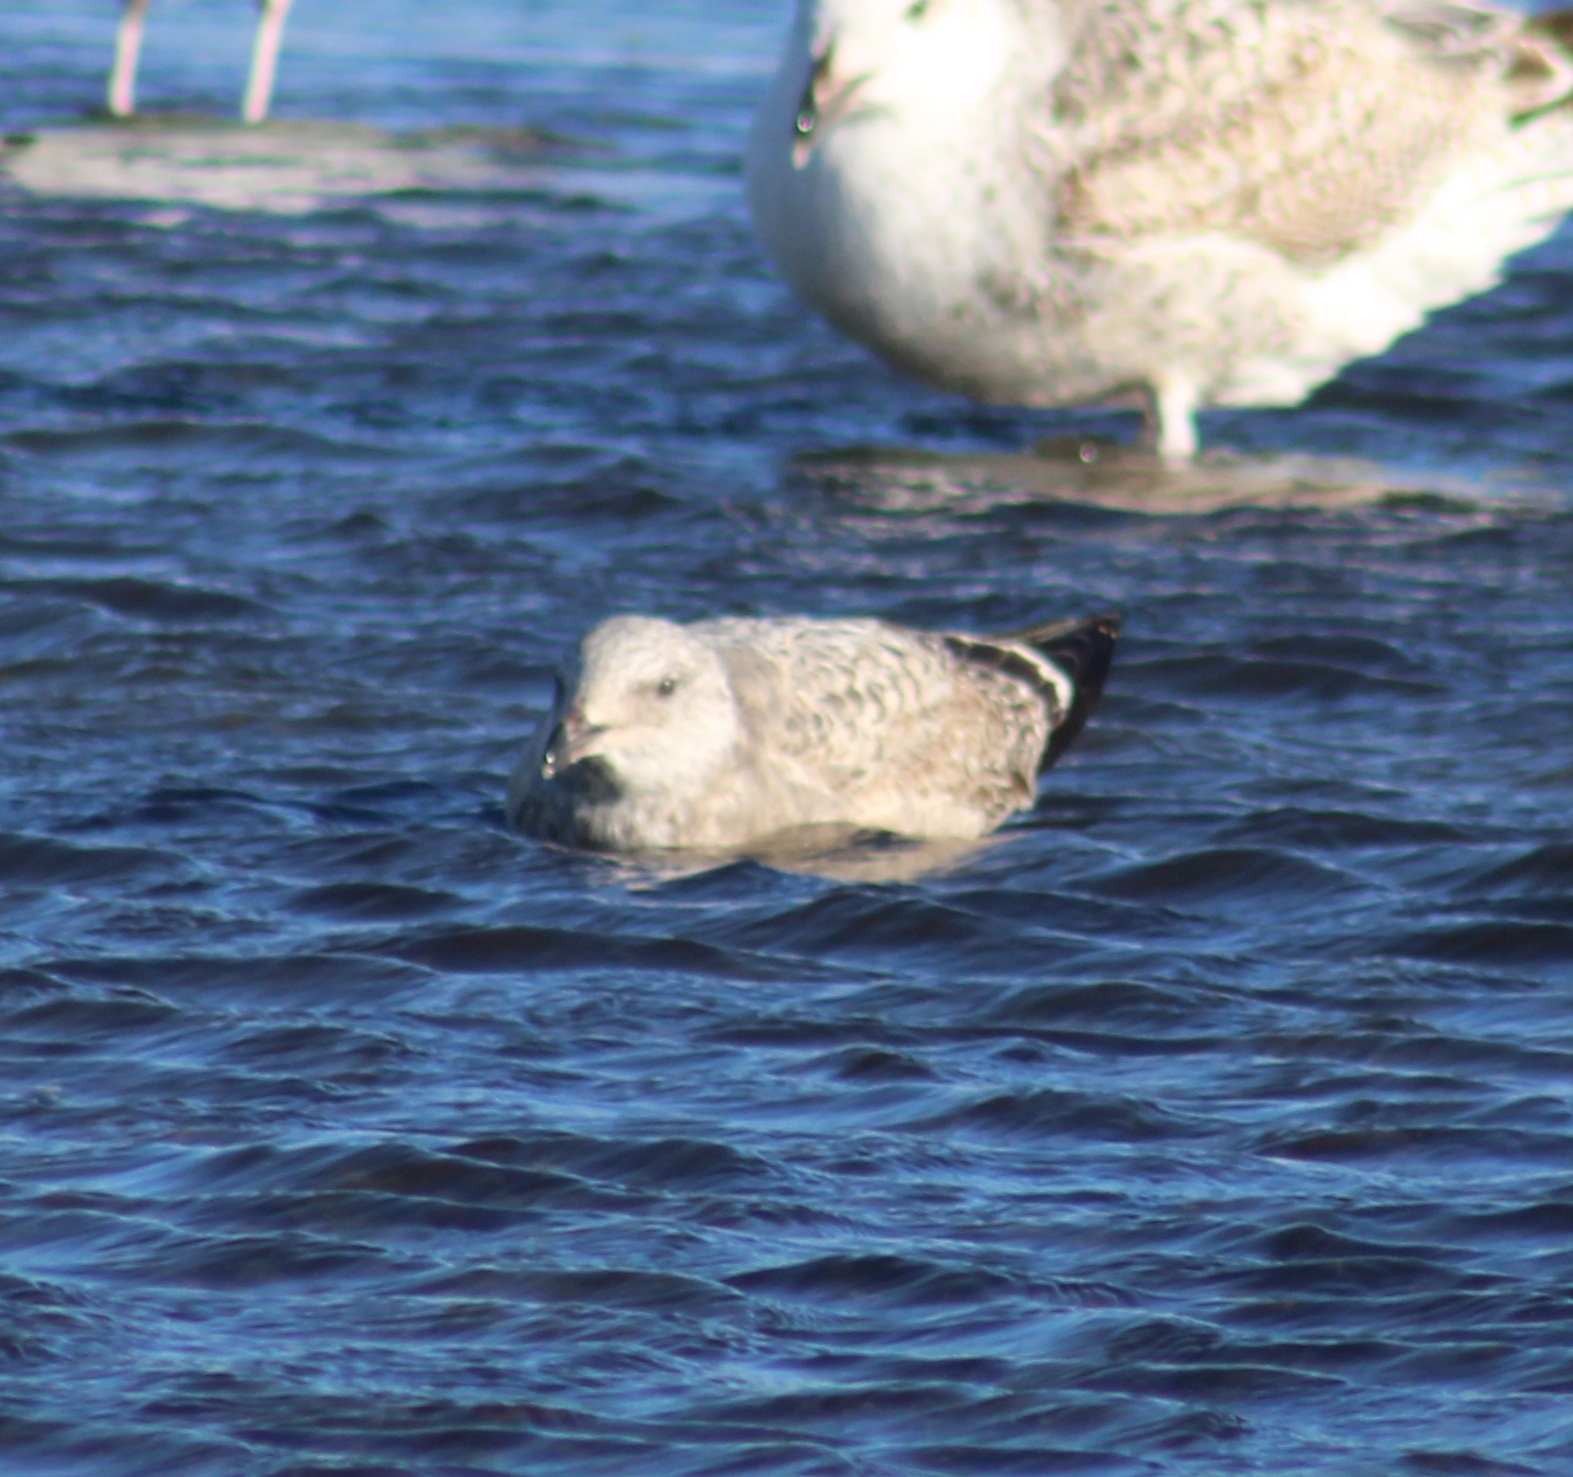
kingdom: Animalia
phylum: Chordata
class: Aves
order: Charadriiformes
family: Laridae
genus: Larus
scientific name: Larus argentatus
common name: Herring gull
